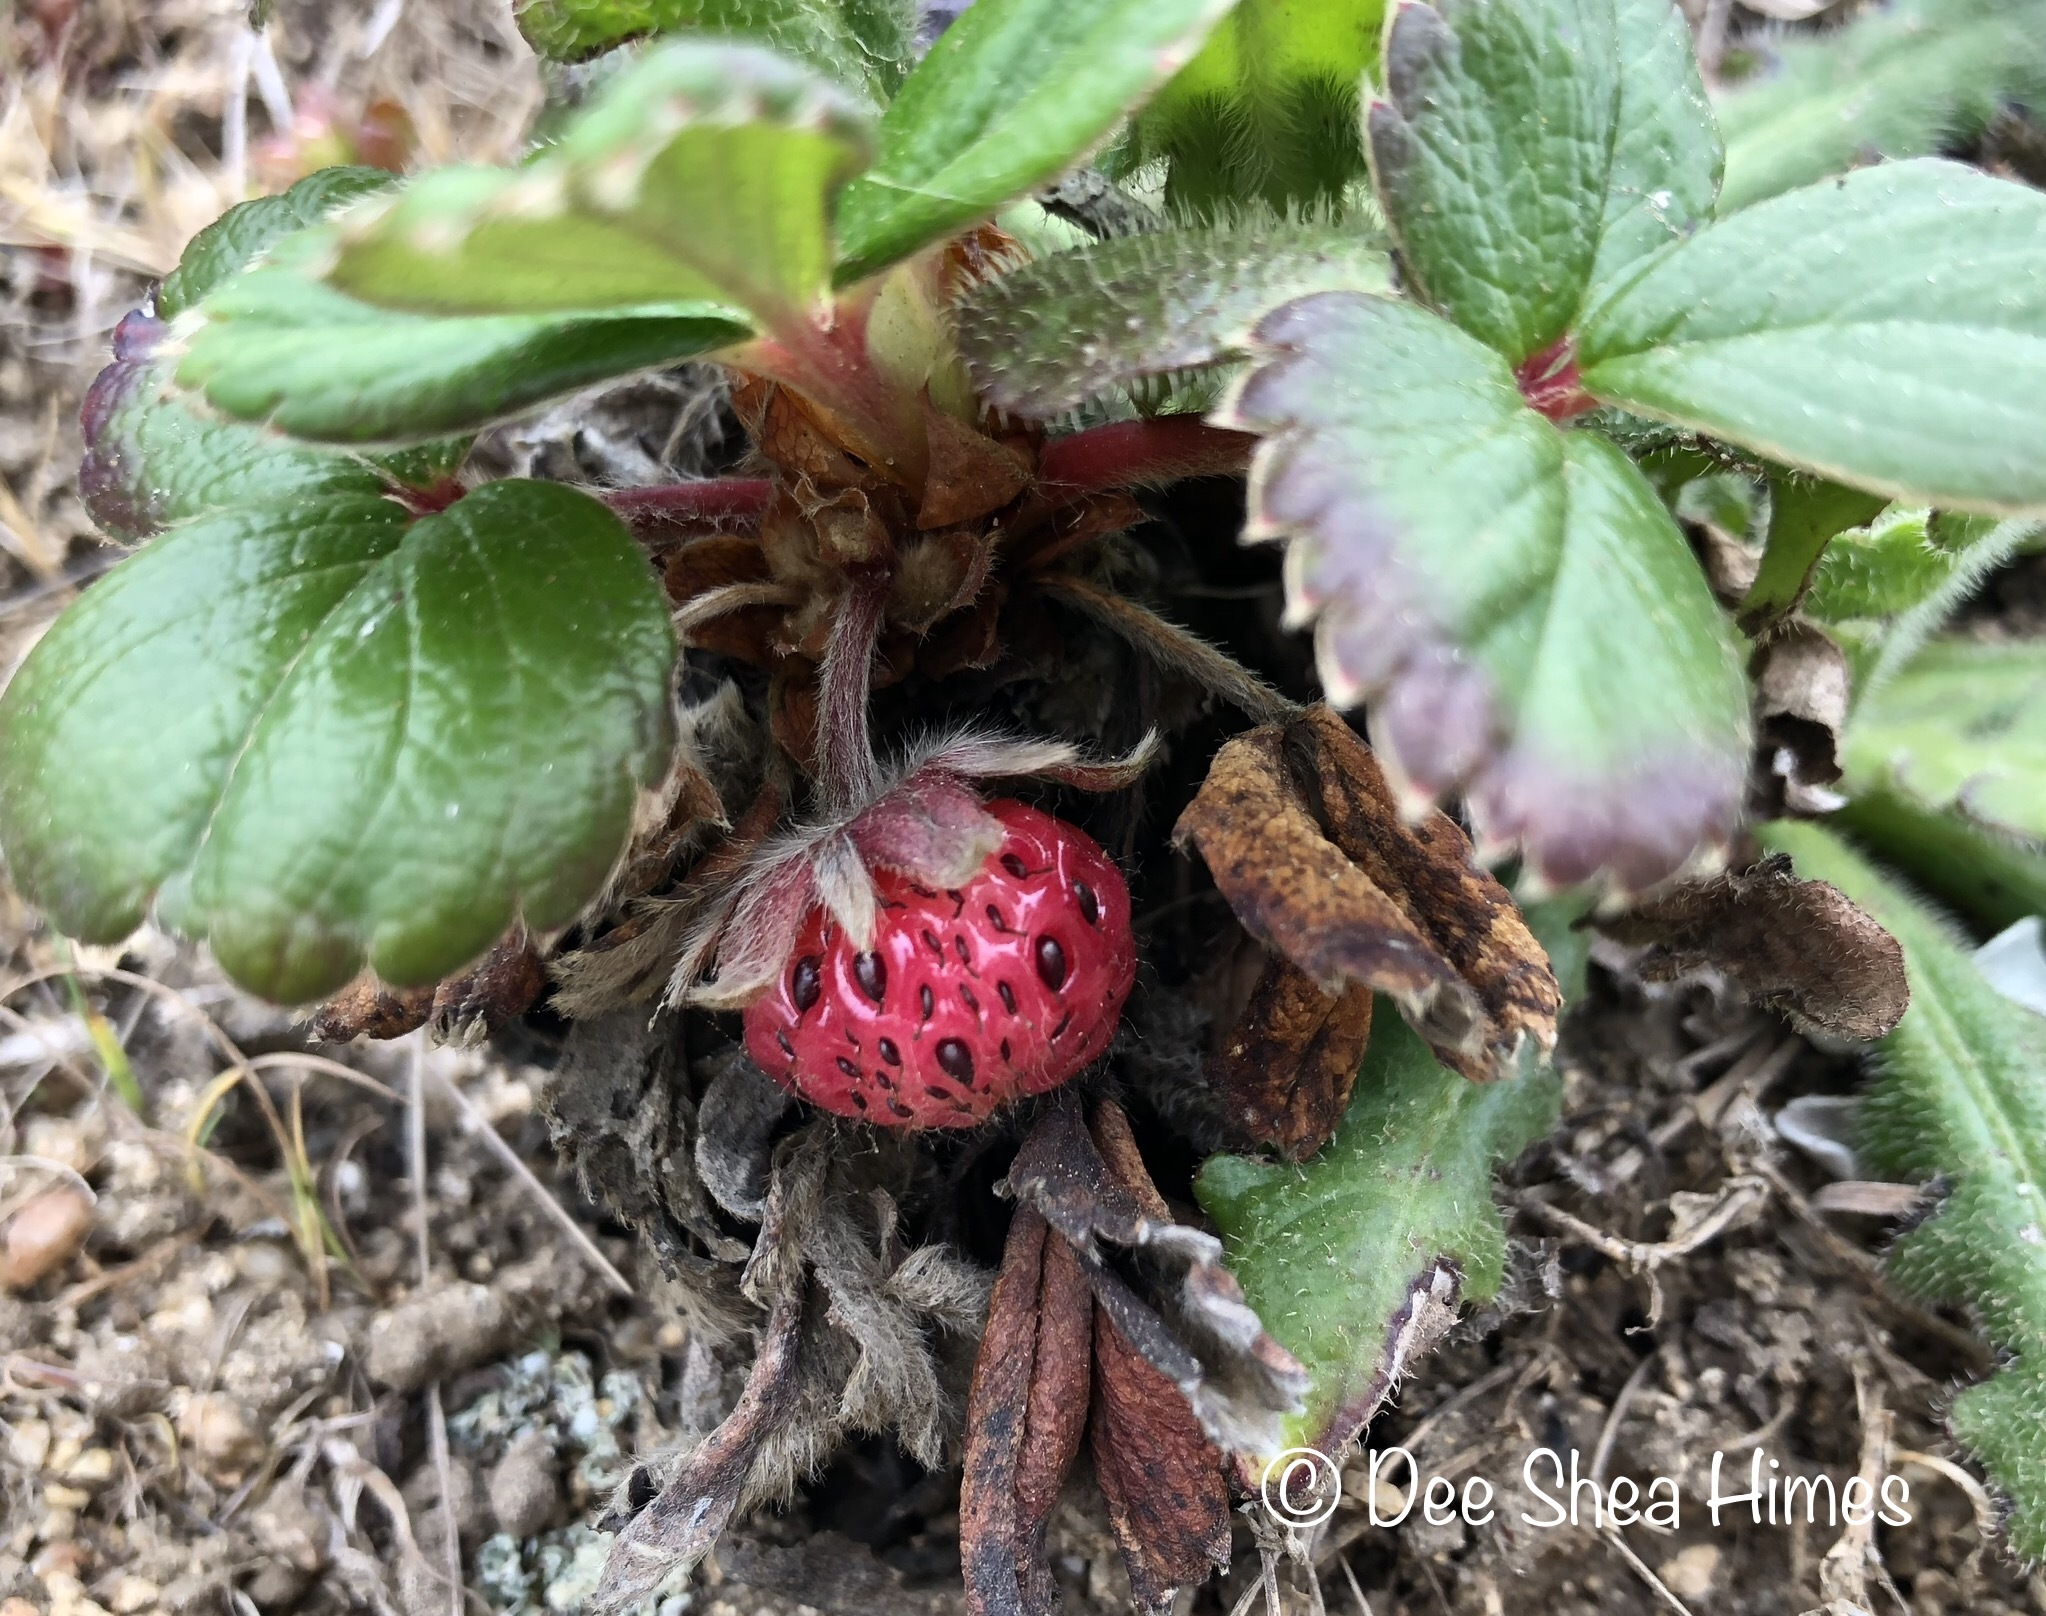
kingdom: Plantae
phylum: Tracheophyta
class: Magnoliopsida
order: Rosales
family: Rosaceae
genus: Fragaria
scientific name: Fragaria chiloensis
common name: Beach strawberry
